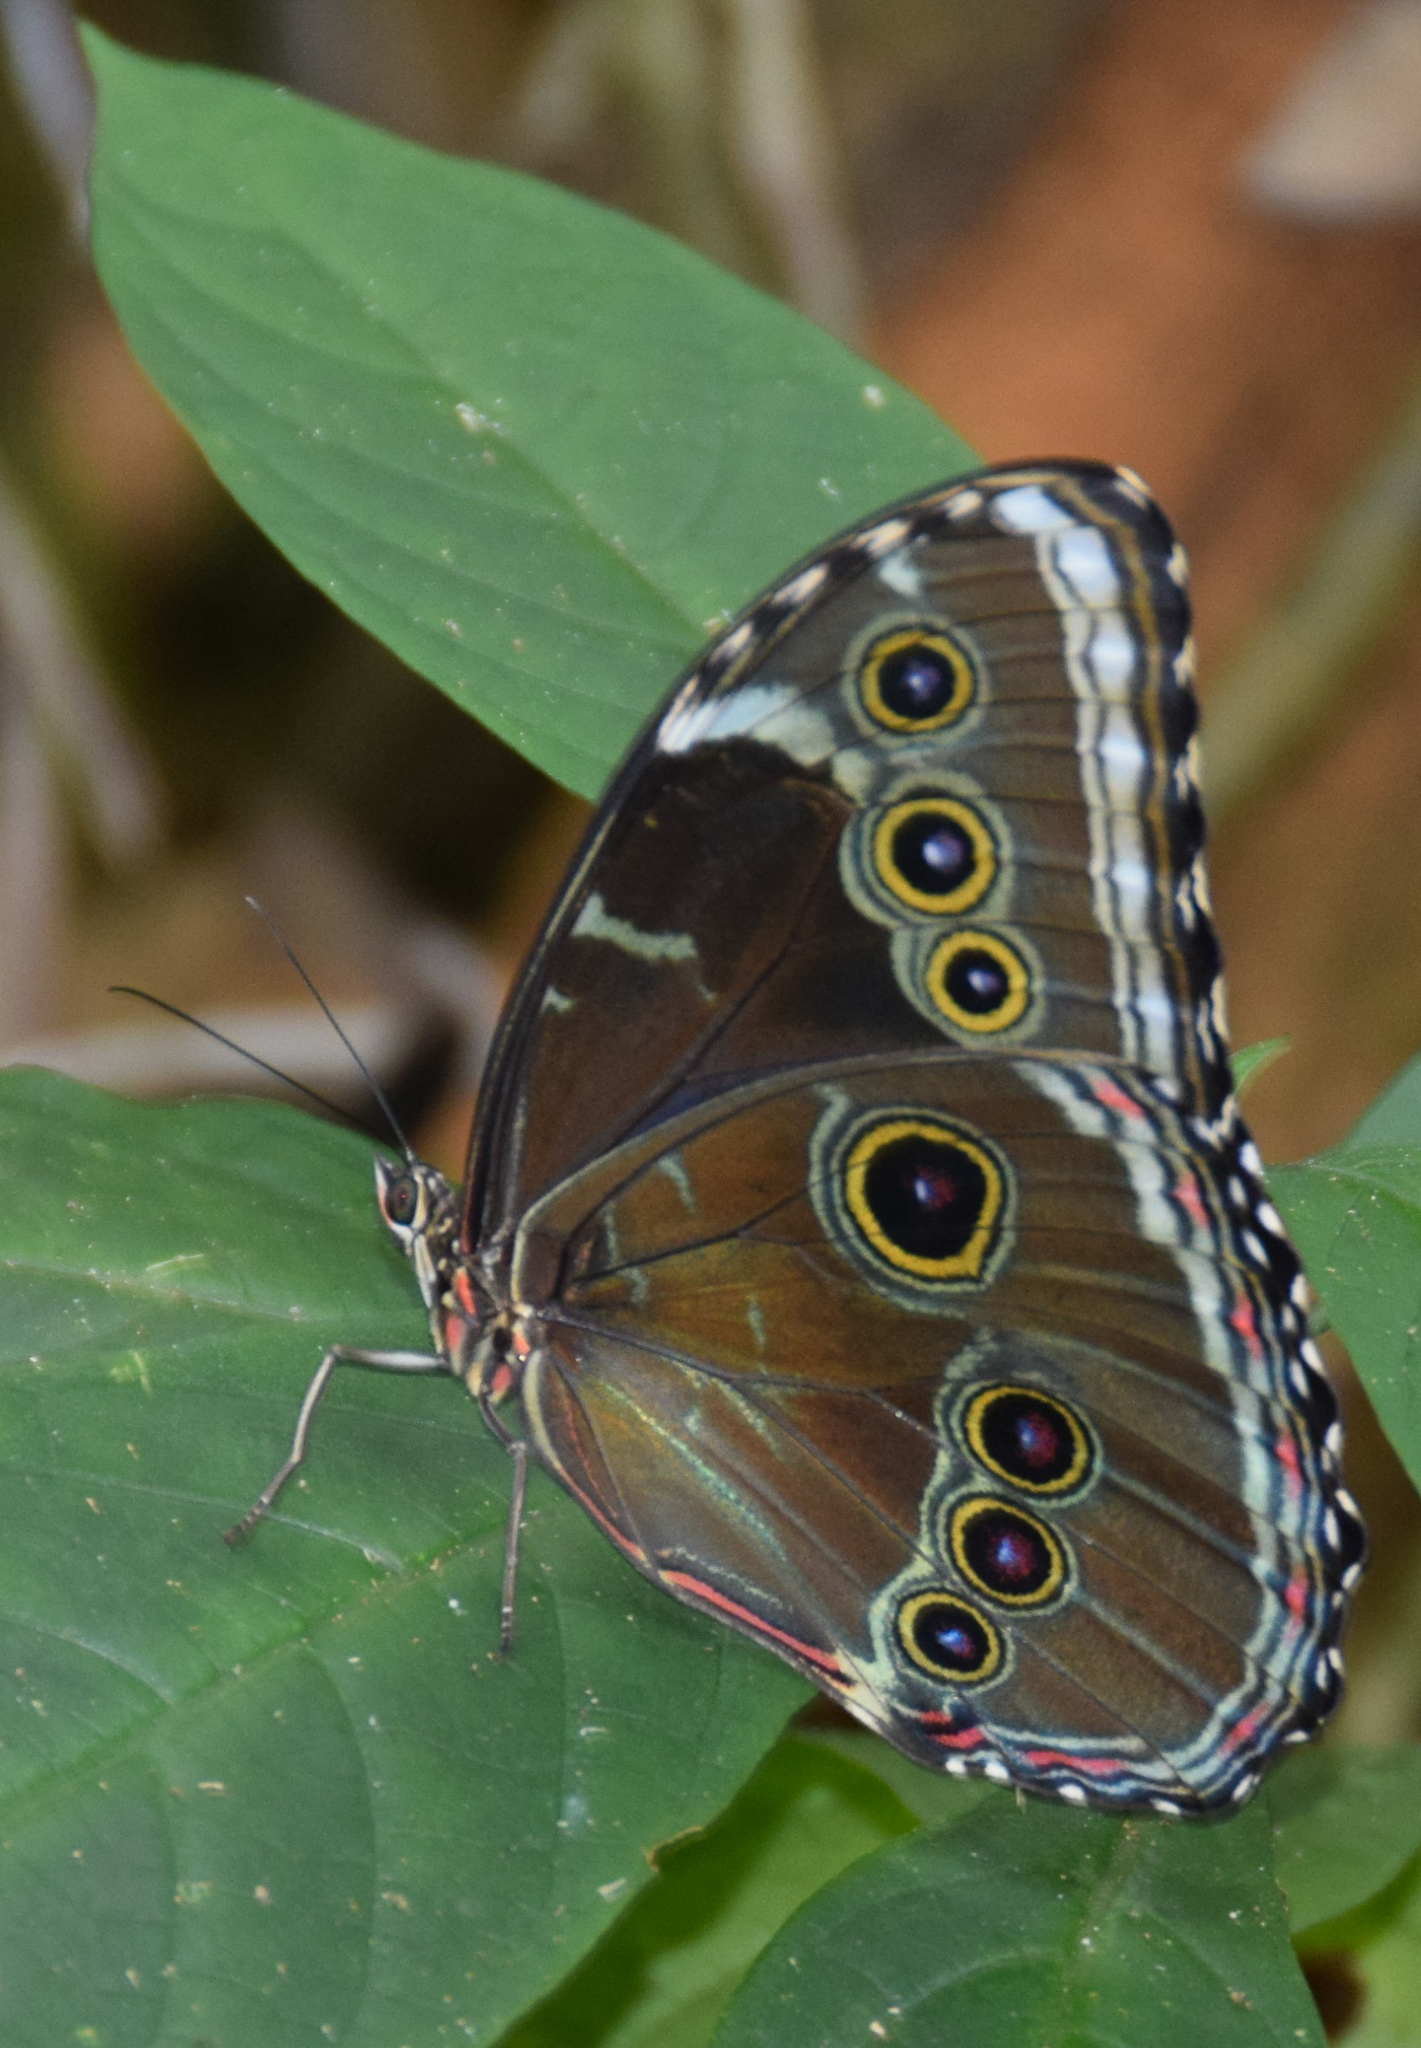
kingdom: Animalia
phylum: Arthropoda
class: Insecta
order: Lepidoptera
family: Nymphalidae
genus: Morpho
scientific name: Morpho helenor
